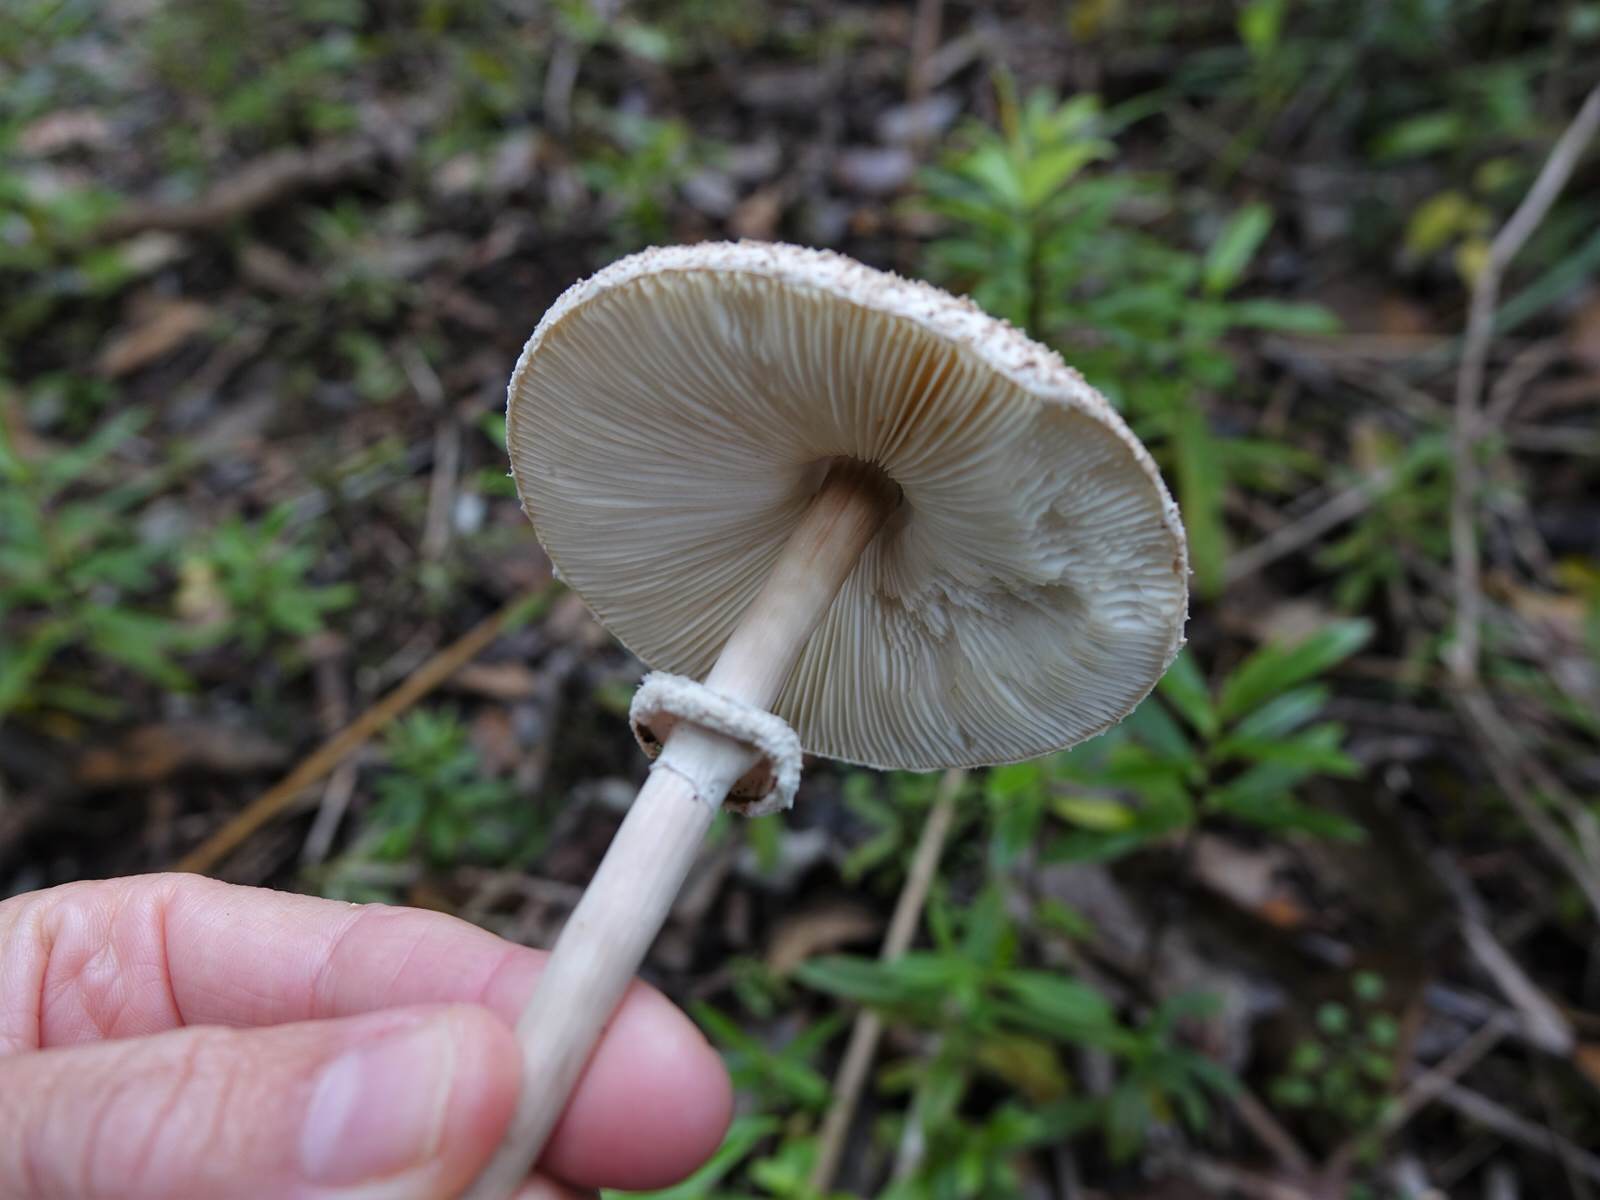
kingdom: Fungi
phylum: Basidiomycota
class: Agaricomycetes
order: Agaricales
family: Agaricaceae
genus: Macrolepiota
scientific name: Macrolepiota clelandii
